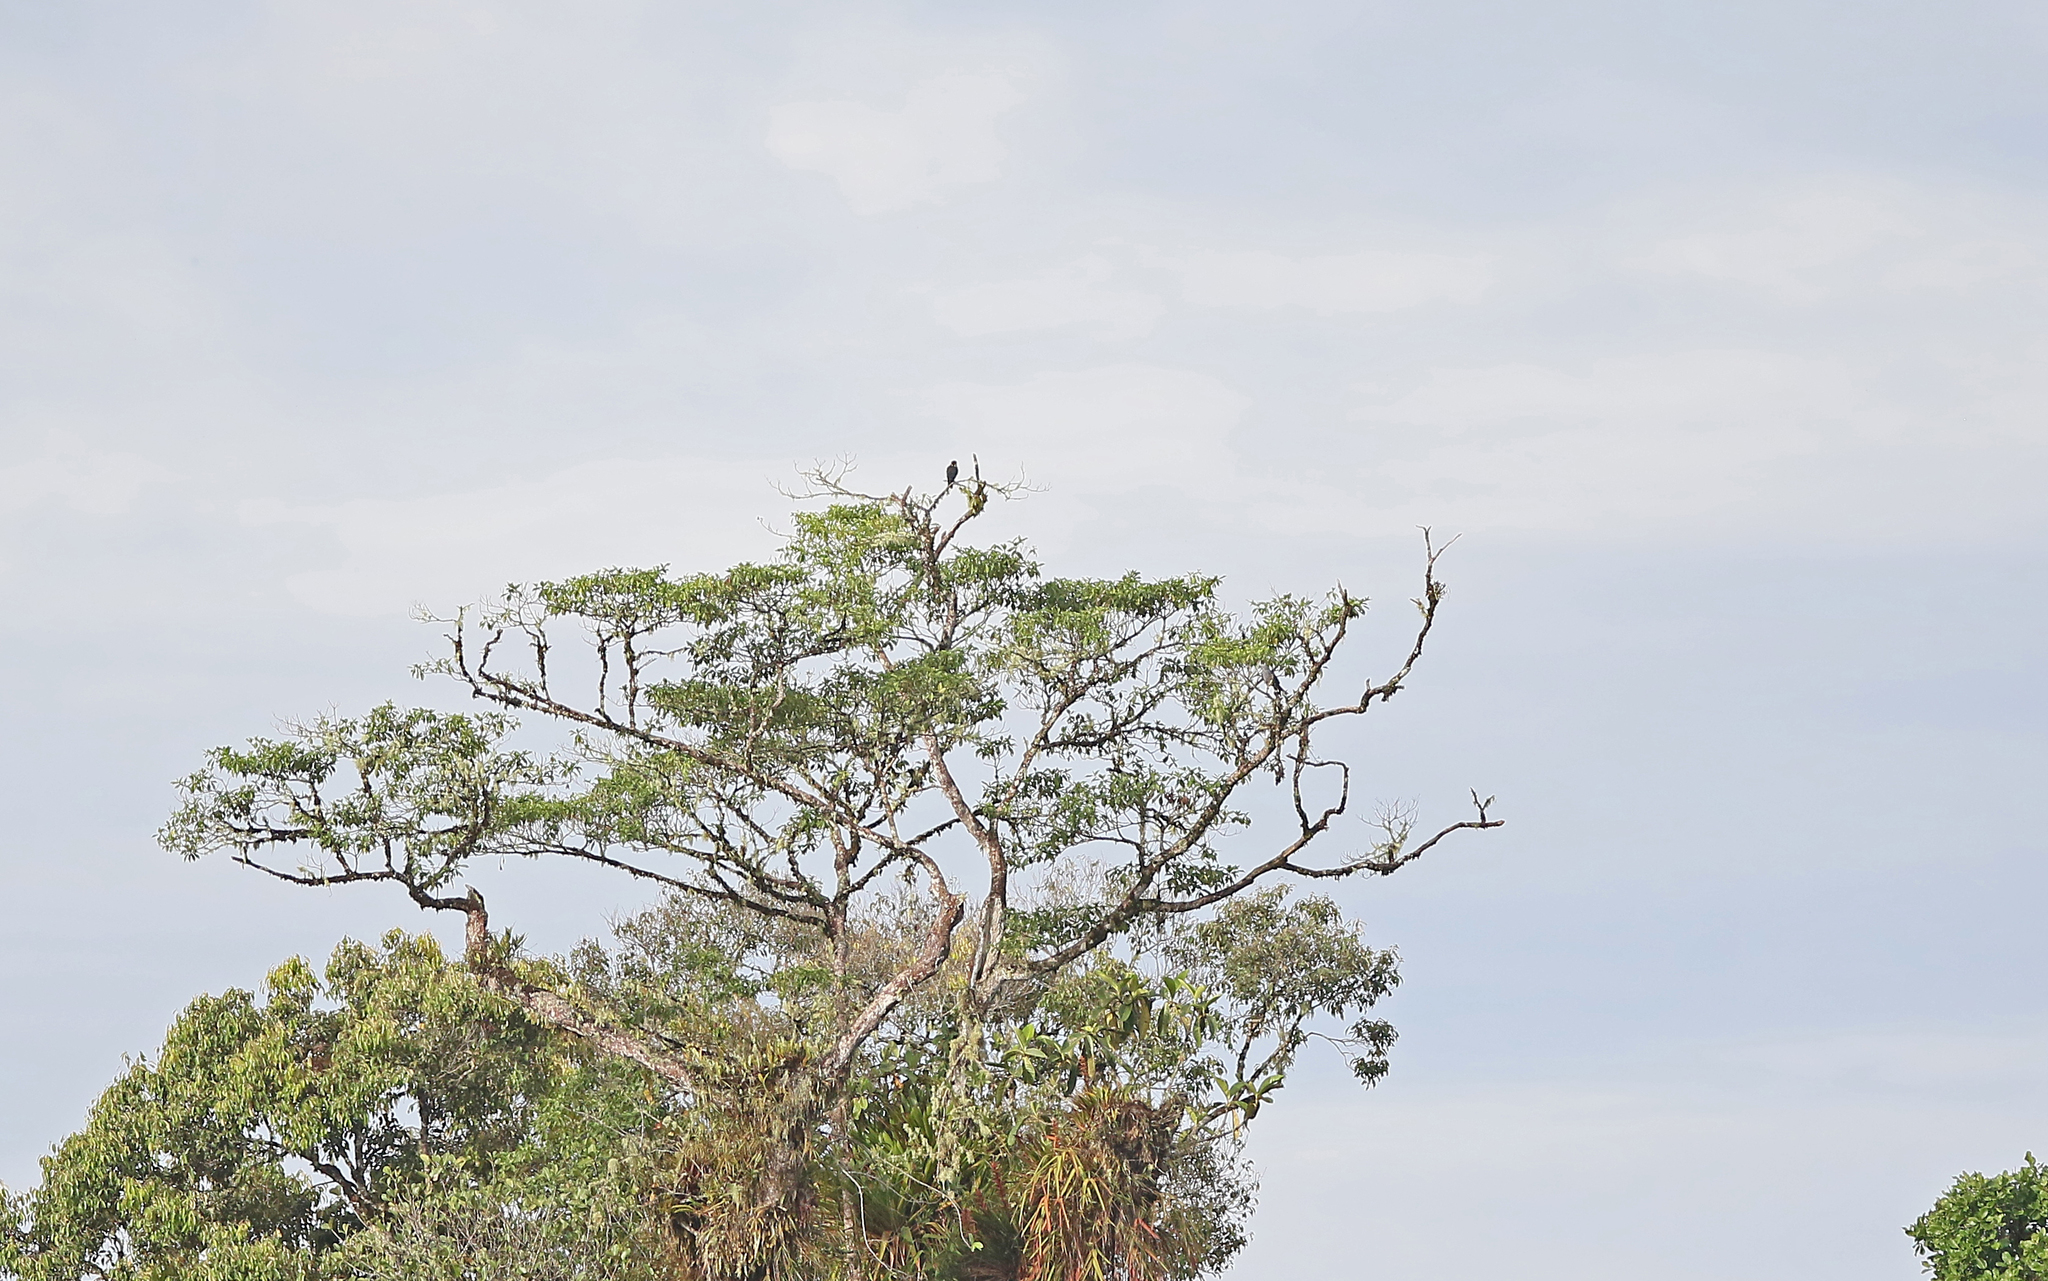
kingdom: Animalia
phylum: Chordata
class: Aves
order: Falconiformes
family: Falconidae
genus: Falco
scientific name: Falco rufigularis
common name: Bat falcon
